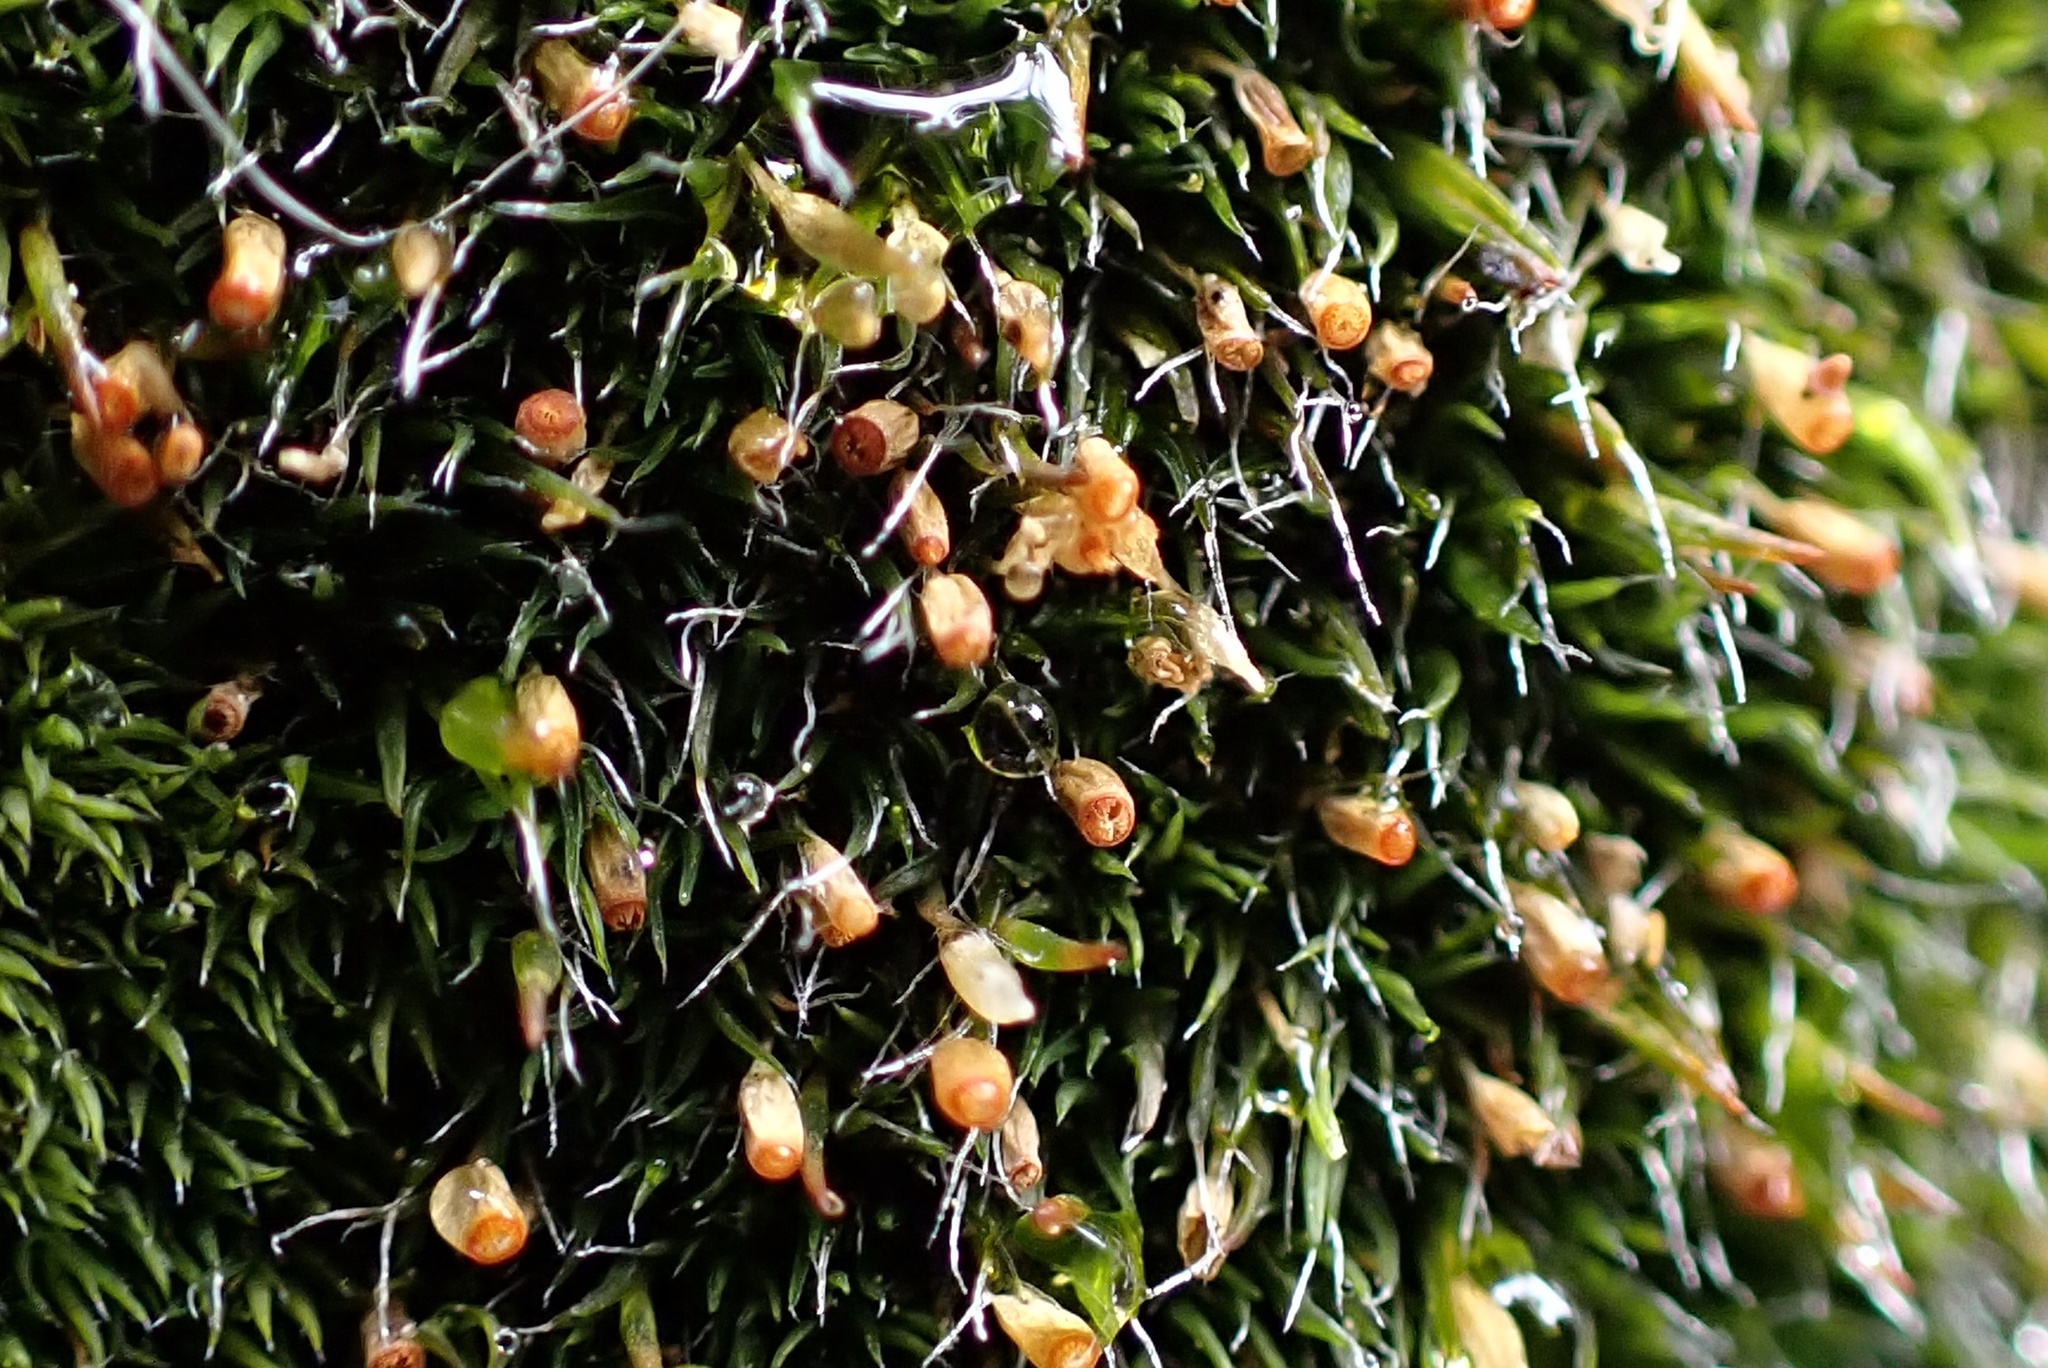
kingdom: Plantae
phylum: Bryophyta
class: Bryopsida
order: Grimmiales
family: Grimmiaceae
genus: Grimmia
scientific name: Grimmia pulvinata
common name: Grey-cushioned grimmia
